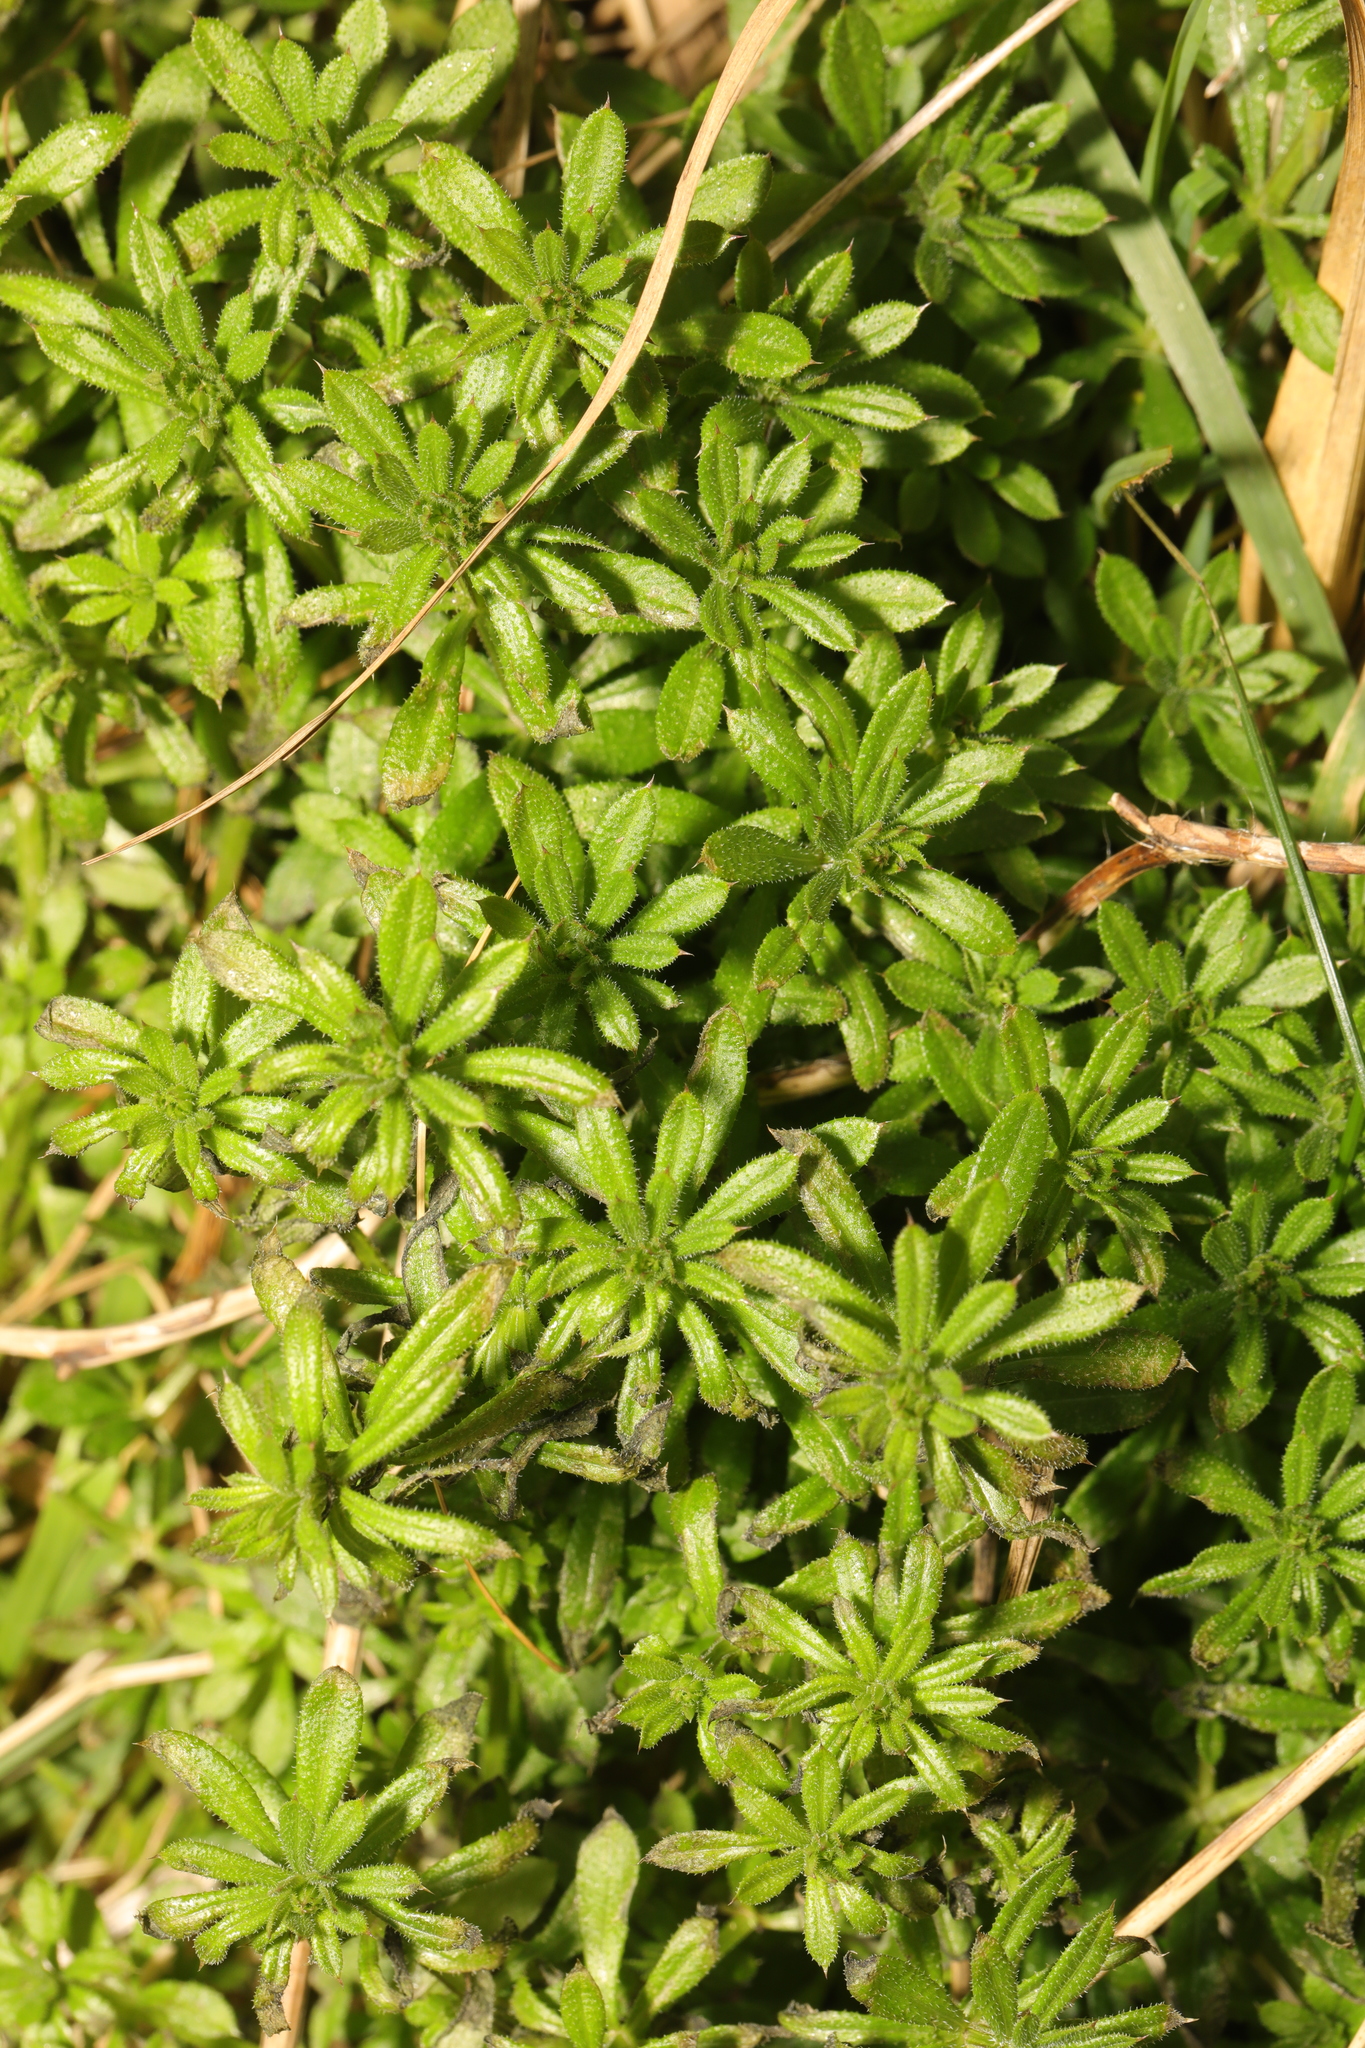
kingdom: Plantae
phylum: Tracheophyta
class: Magnoliopsida
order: Gentianales
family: Rubiaceae
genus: Galium
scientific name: Galium aparine
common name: Cleavers
